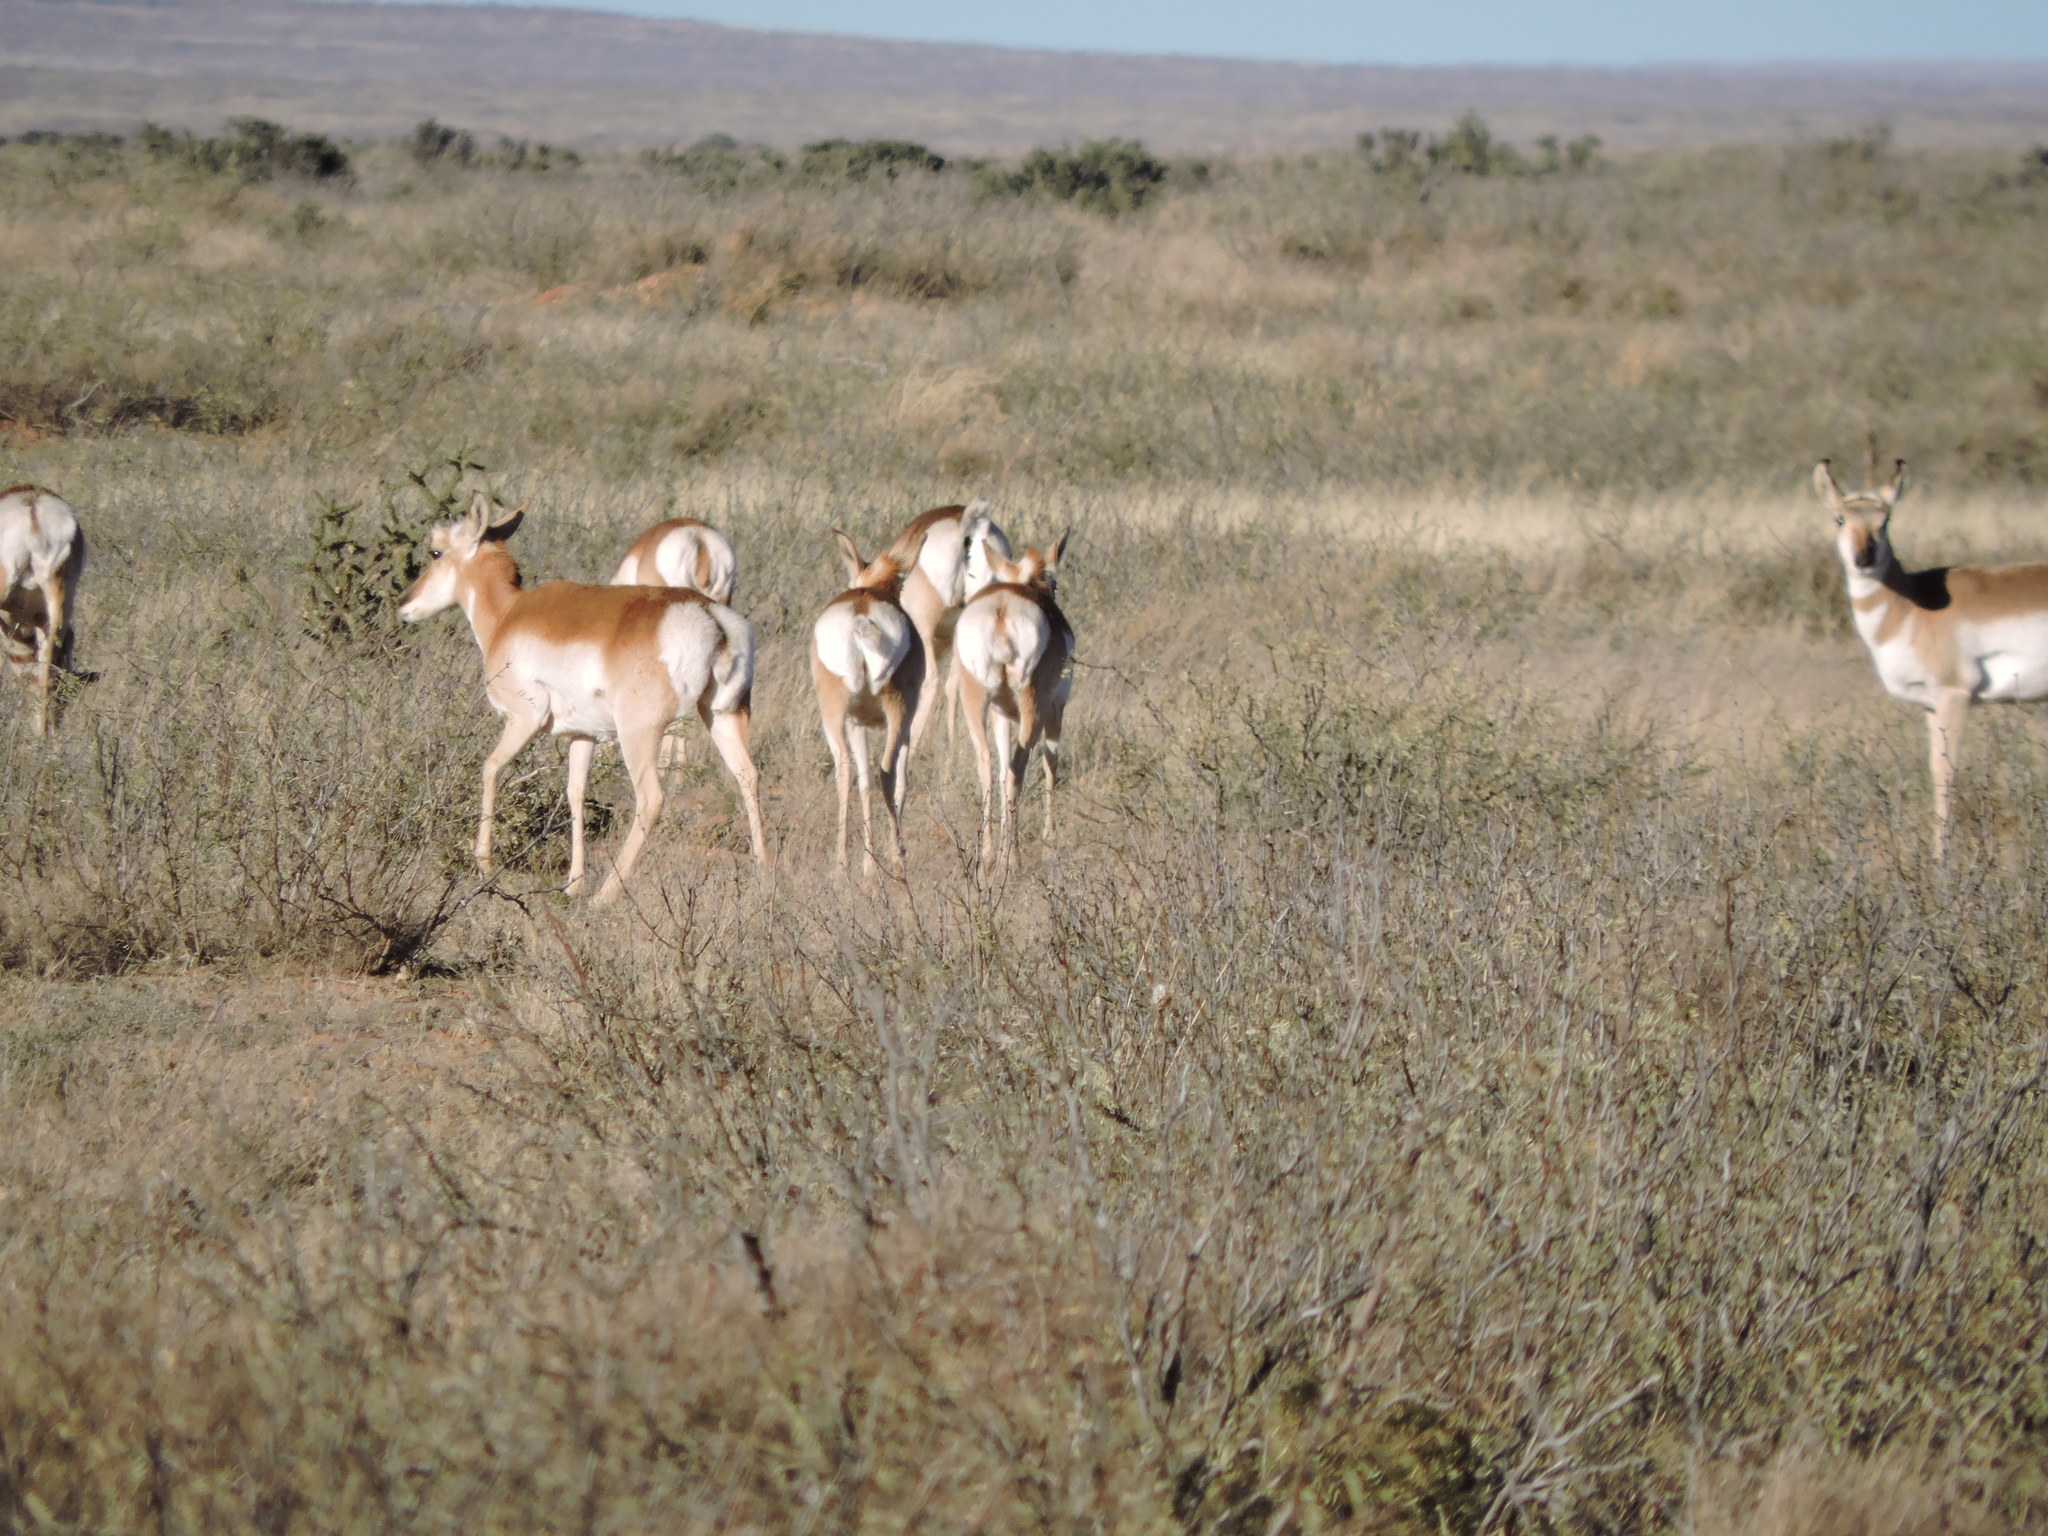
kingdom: Animalia
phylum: Chordata
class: Mammalia
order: Artiodactyla
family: Antilocapridae
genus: Antilocapra
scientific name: Antilocapra americana
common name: Pronghorn
